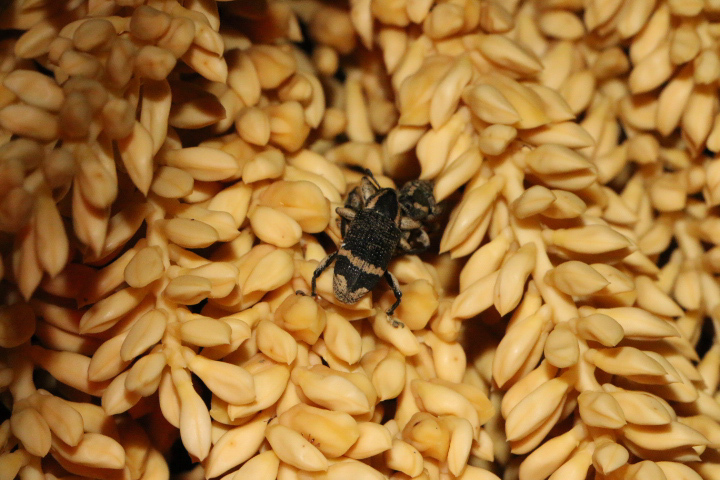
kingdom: Animalia
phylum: Arthropoda
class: Insecta
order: Coleoptera
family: Curculionidae
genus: Odontoderes
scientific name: Odontoderes
